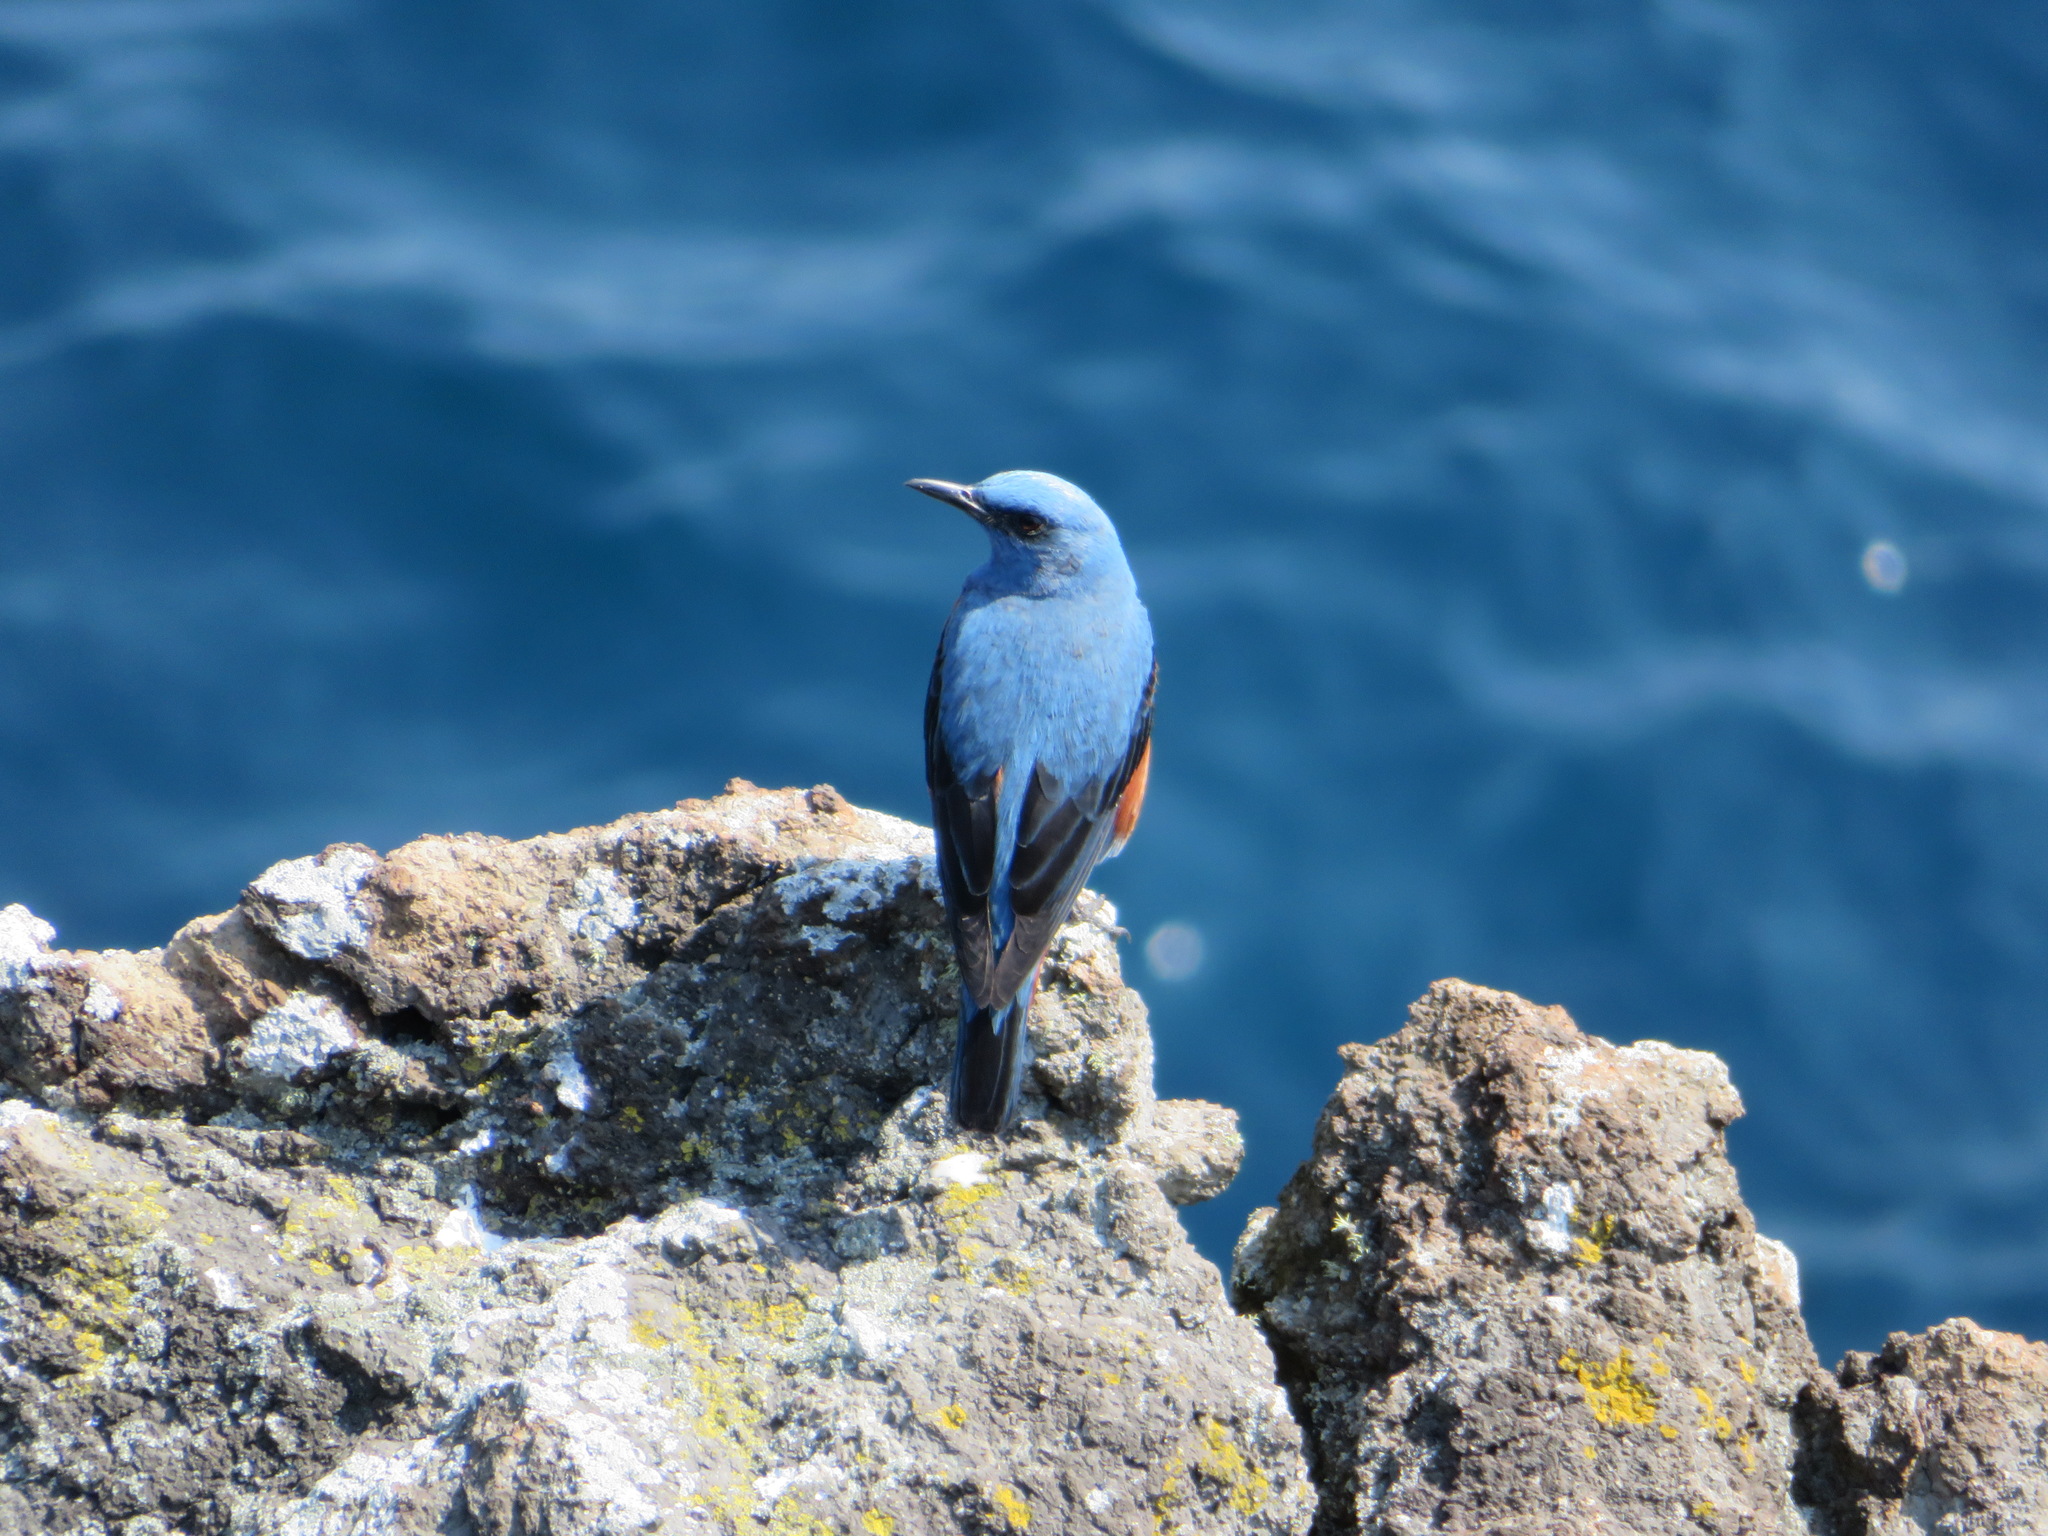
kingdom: Animalia
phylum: Chordata
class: Aves
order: Passeriformes
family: Muscicapidae
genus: Monticola
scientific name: Monticola solitarius
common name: Blue rock thrush
